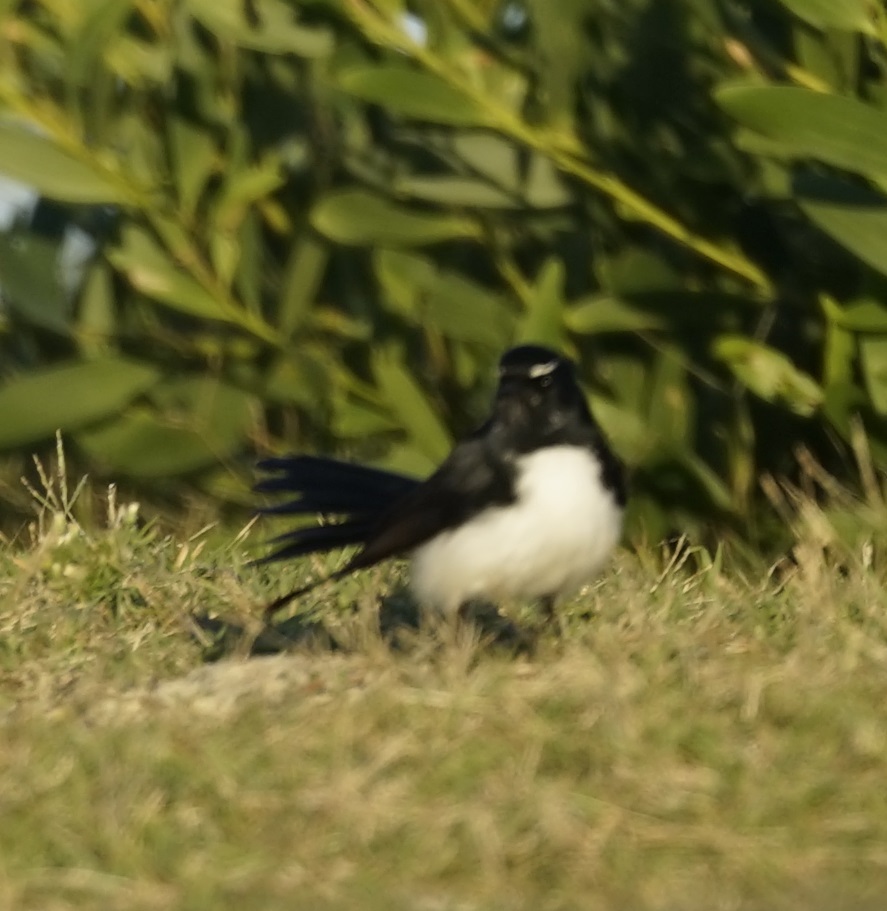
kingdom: Animalia
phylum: Chordata
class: Aves
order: Passeriformes
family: Rhipiduridae
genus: Rhipidura
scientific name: Rhipidura leucophrys
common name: Willie wagtail
